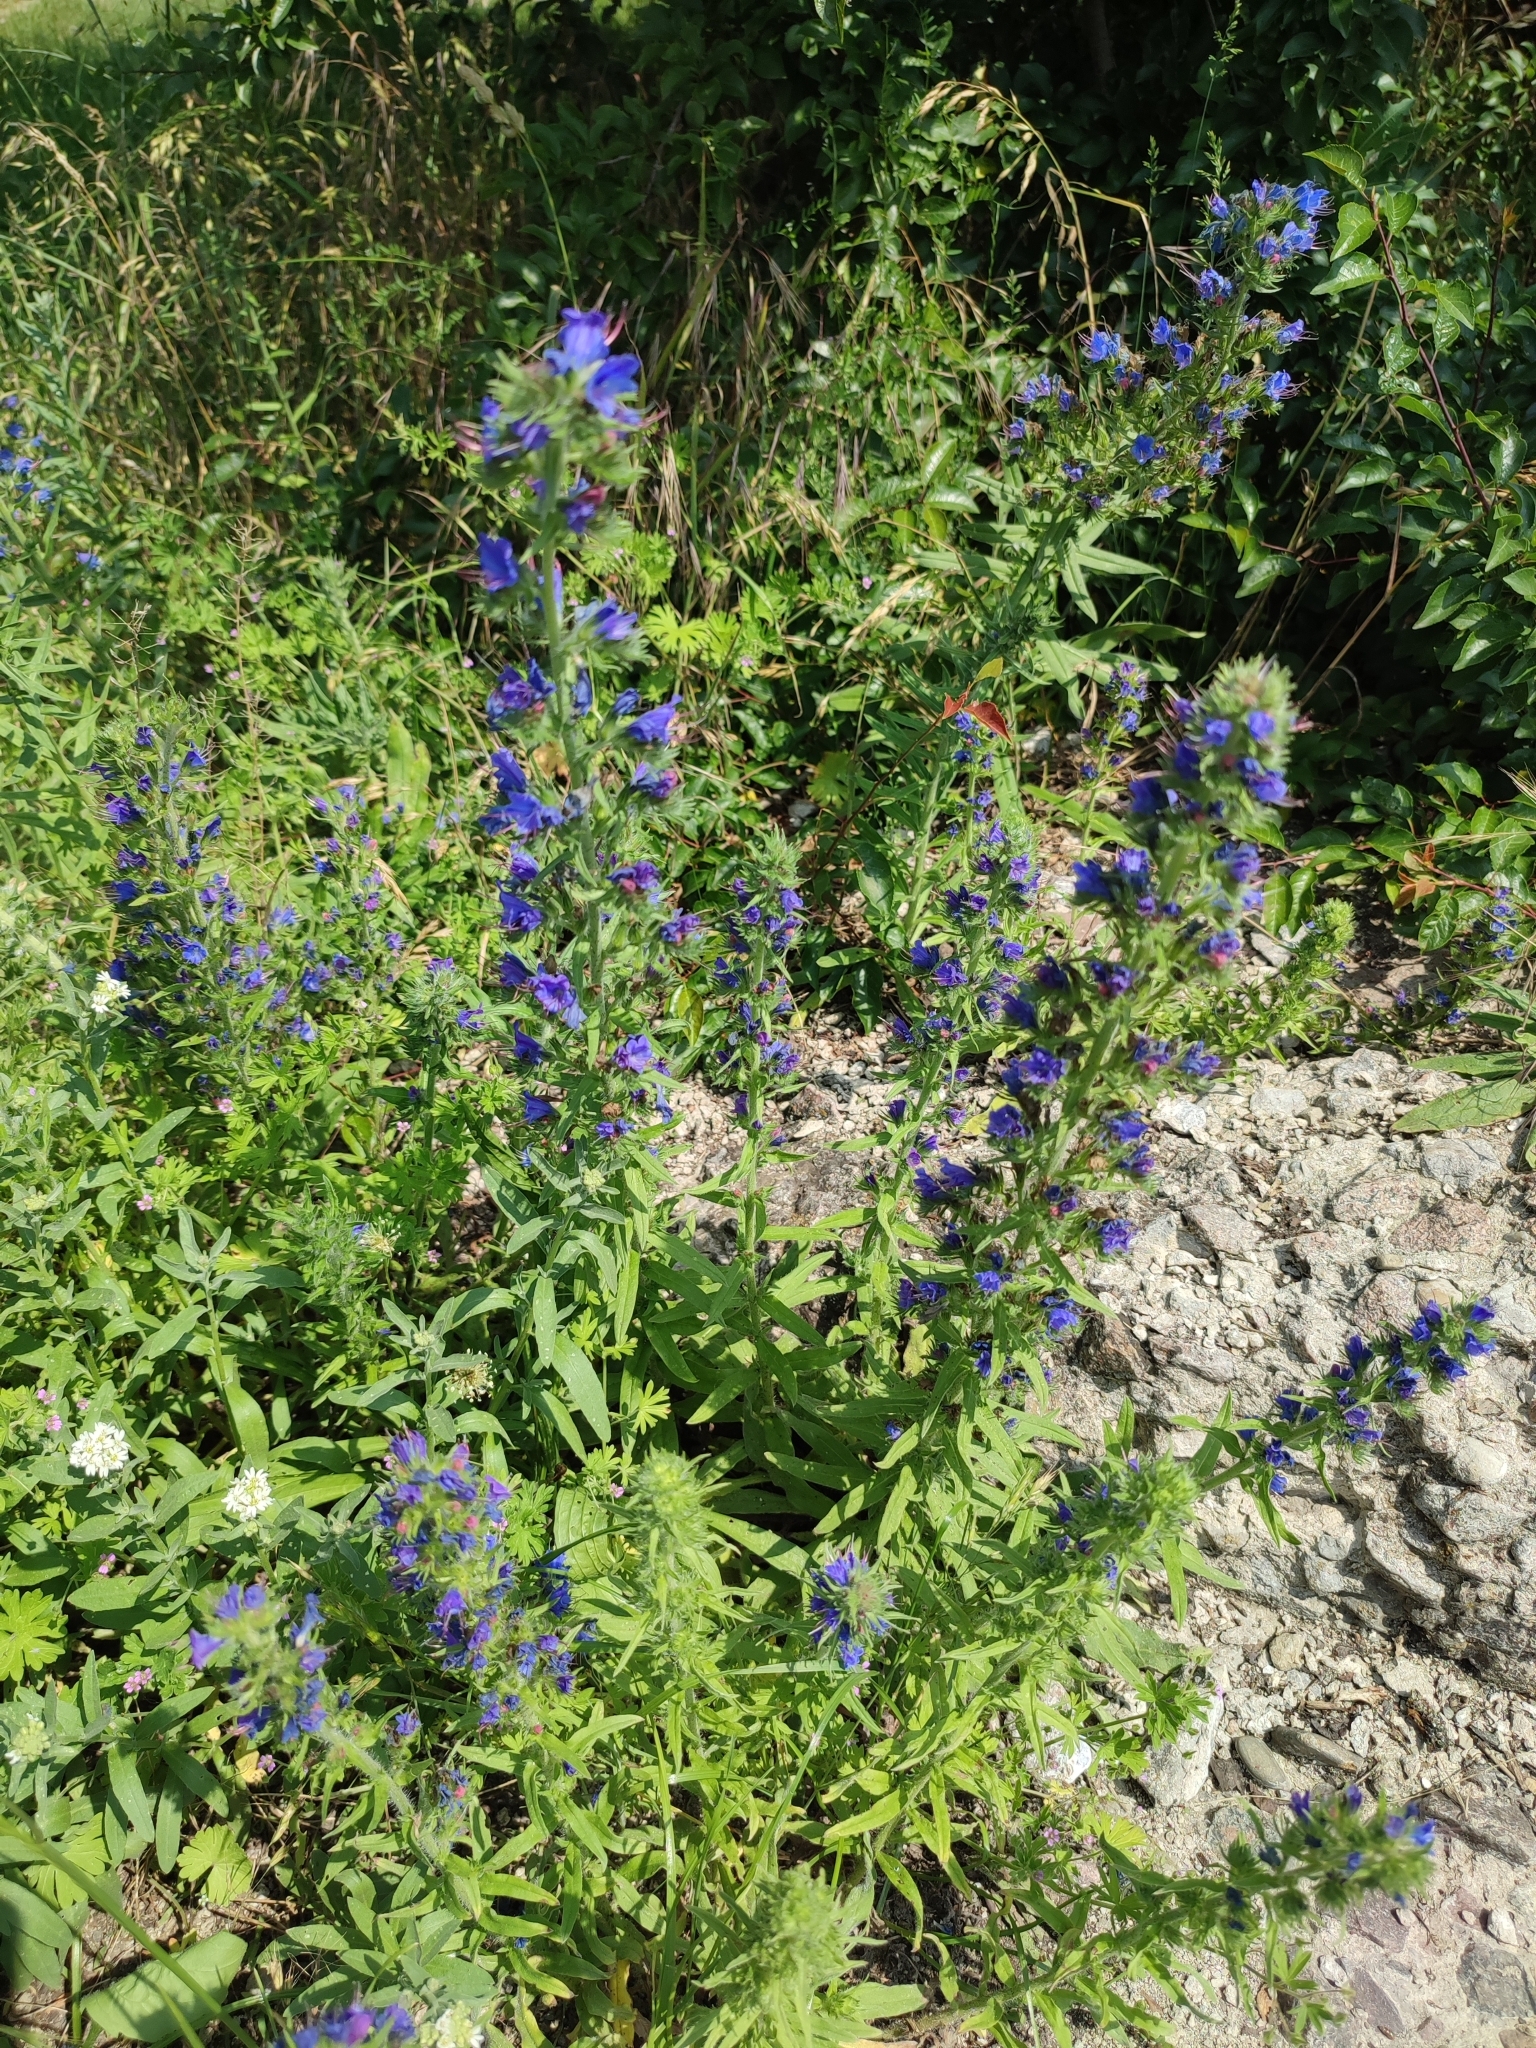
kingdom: Plantae
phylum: Tracheophyta
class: Magnoliopsida
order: Boraginales
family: Boraginaceae
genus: Echium
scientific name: Echium vulgare
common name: Common viper's bugloss
